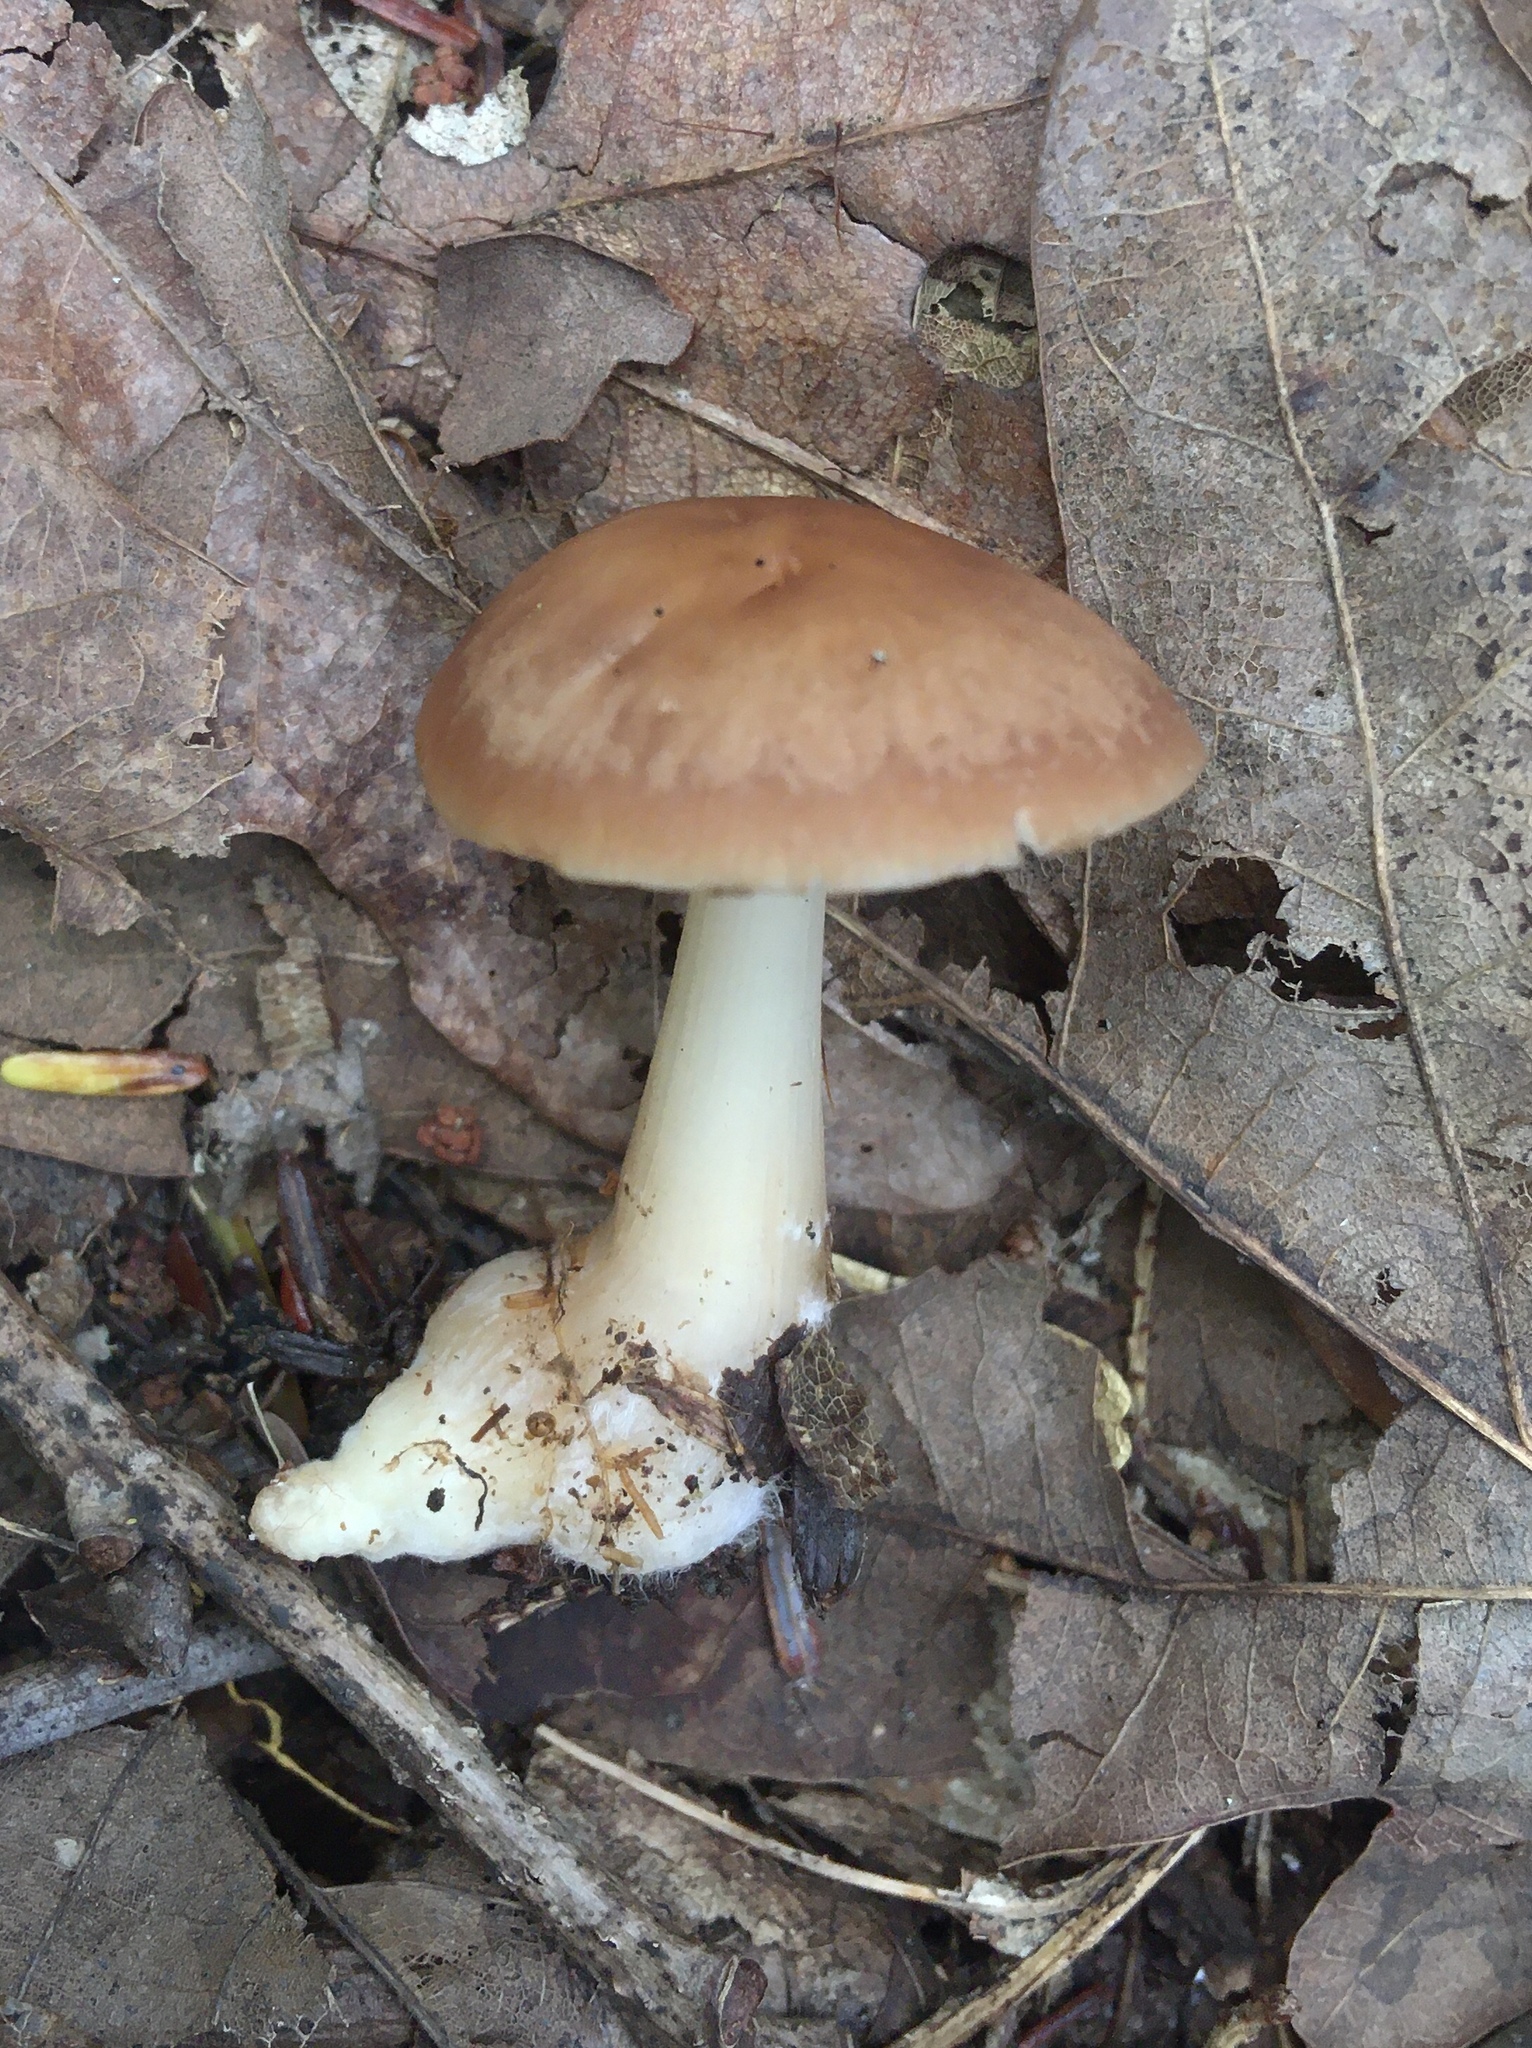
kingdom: Fungi
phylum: Basidiomycota
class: Agaricomycetes
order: Agaricales
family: Omphalotaceae
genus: Rhodocollybia
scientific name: Rhodocollybia butyracea
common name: Butter cap
